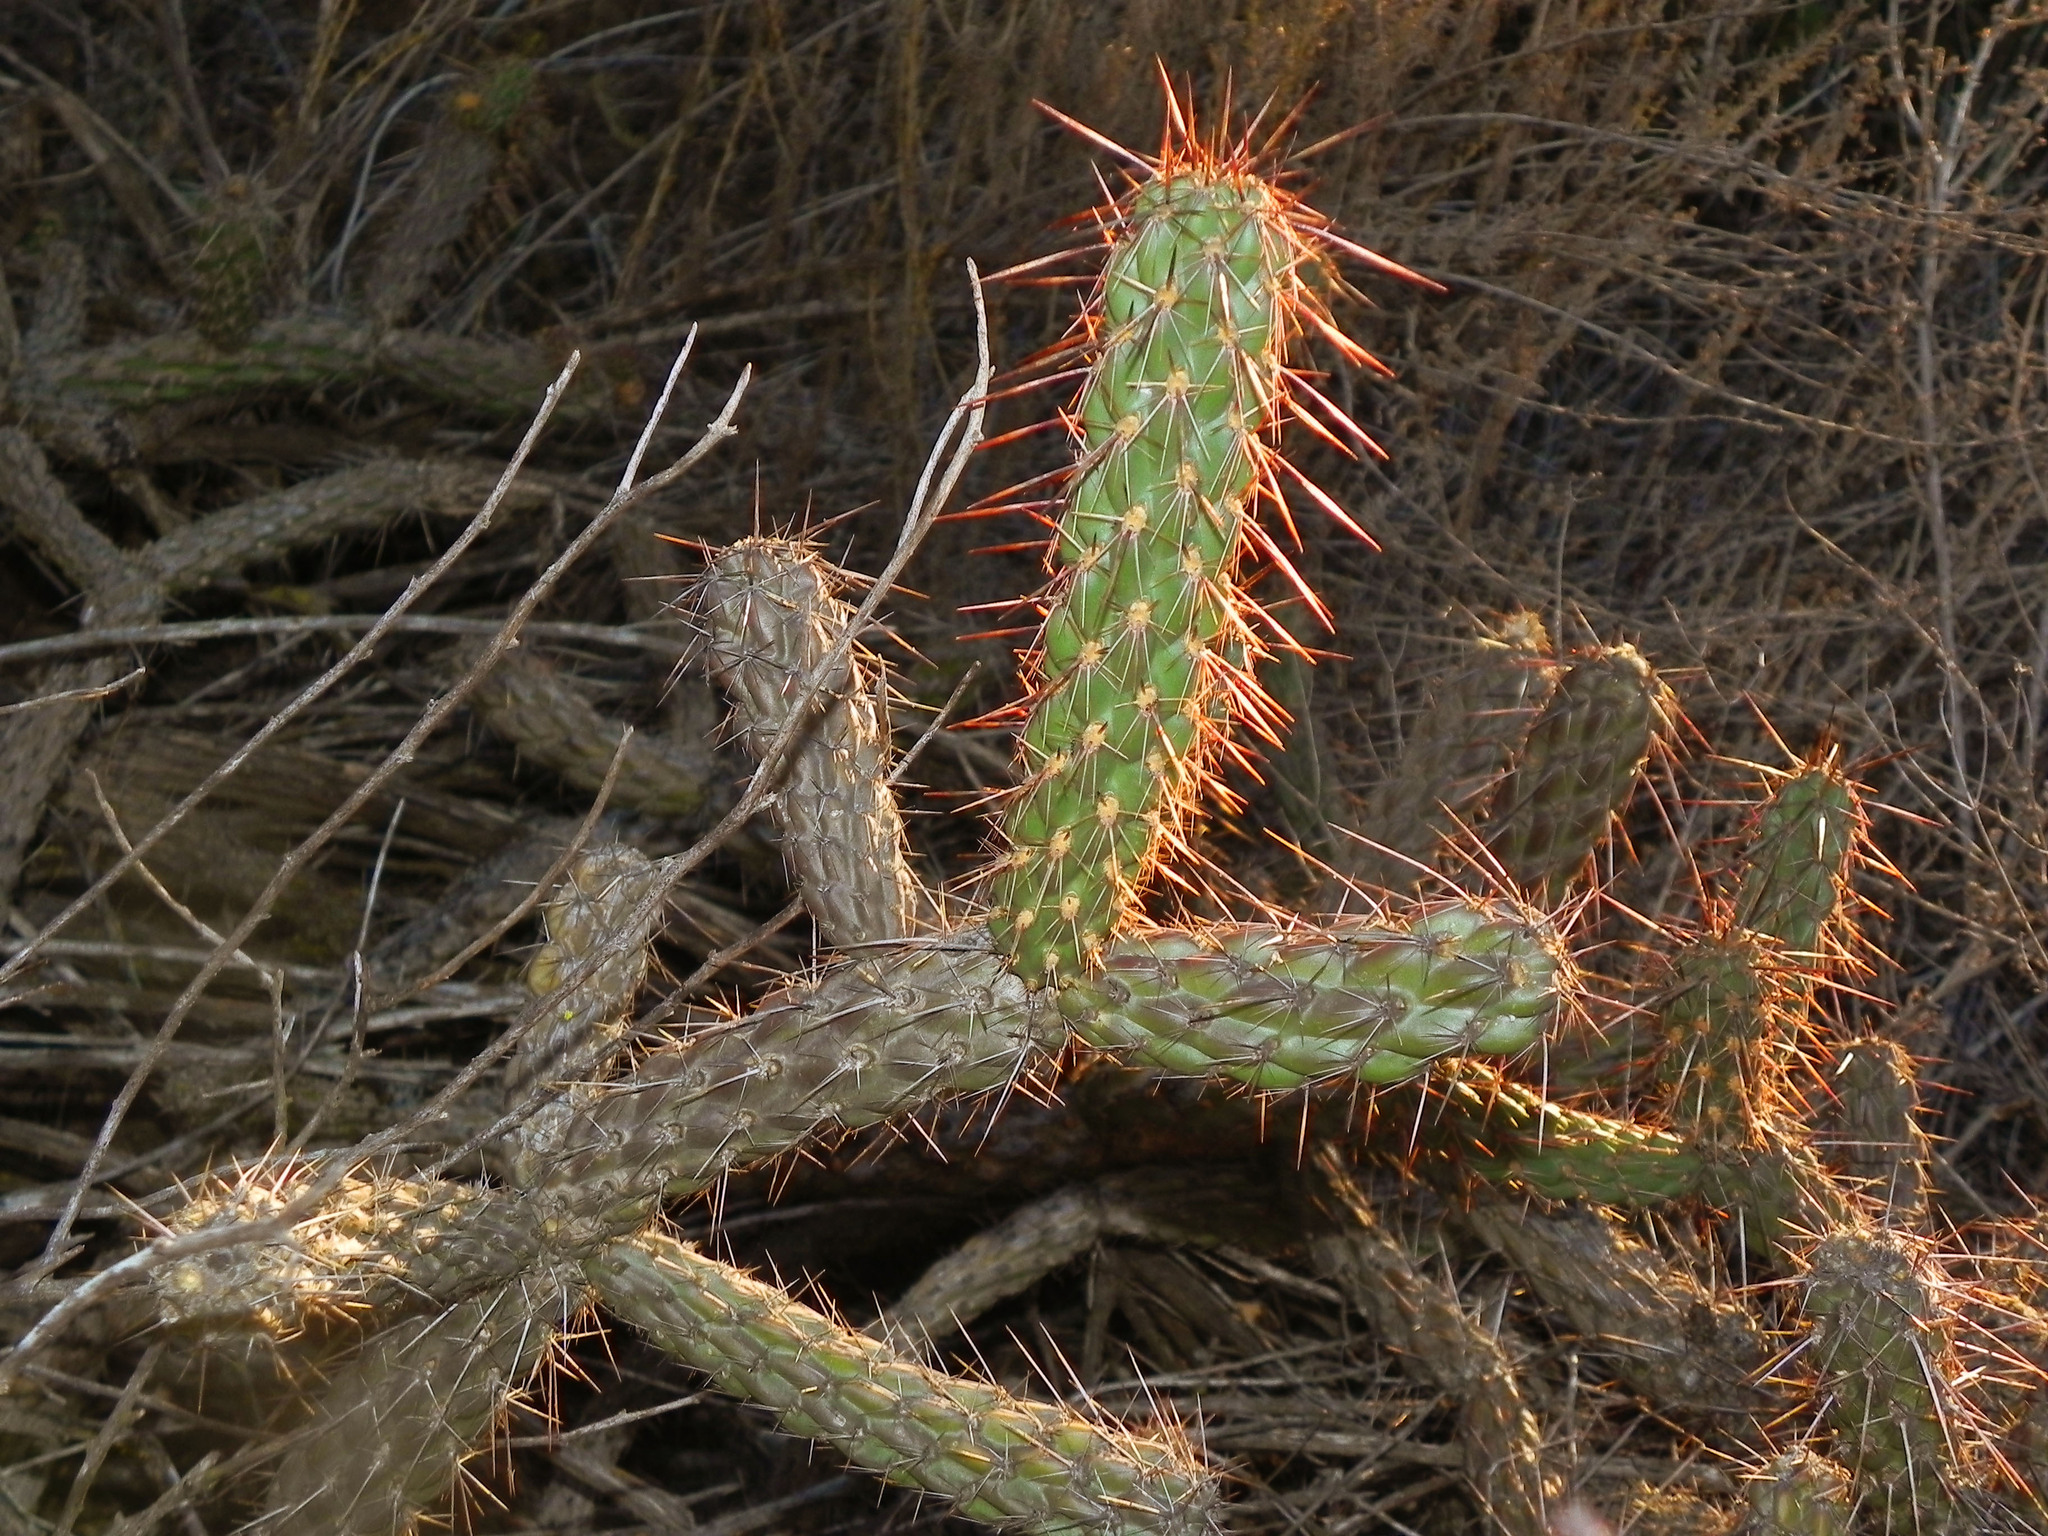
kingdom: Plantae
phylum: Tracheophyta
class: Magnoliopsida
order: Caryophyllales
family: Cactaceae
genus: Cylindropuntia
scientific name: Cylindropuntia californica
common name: Snake cholla
